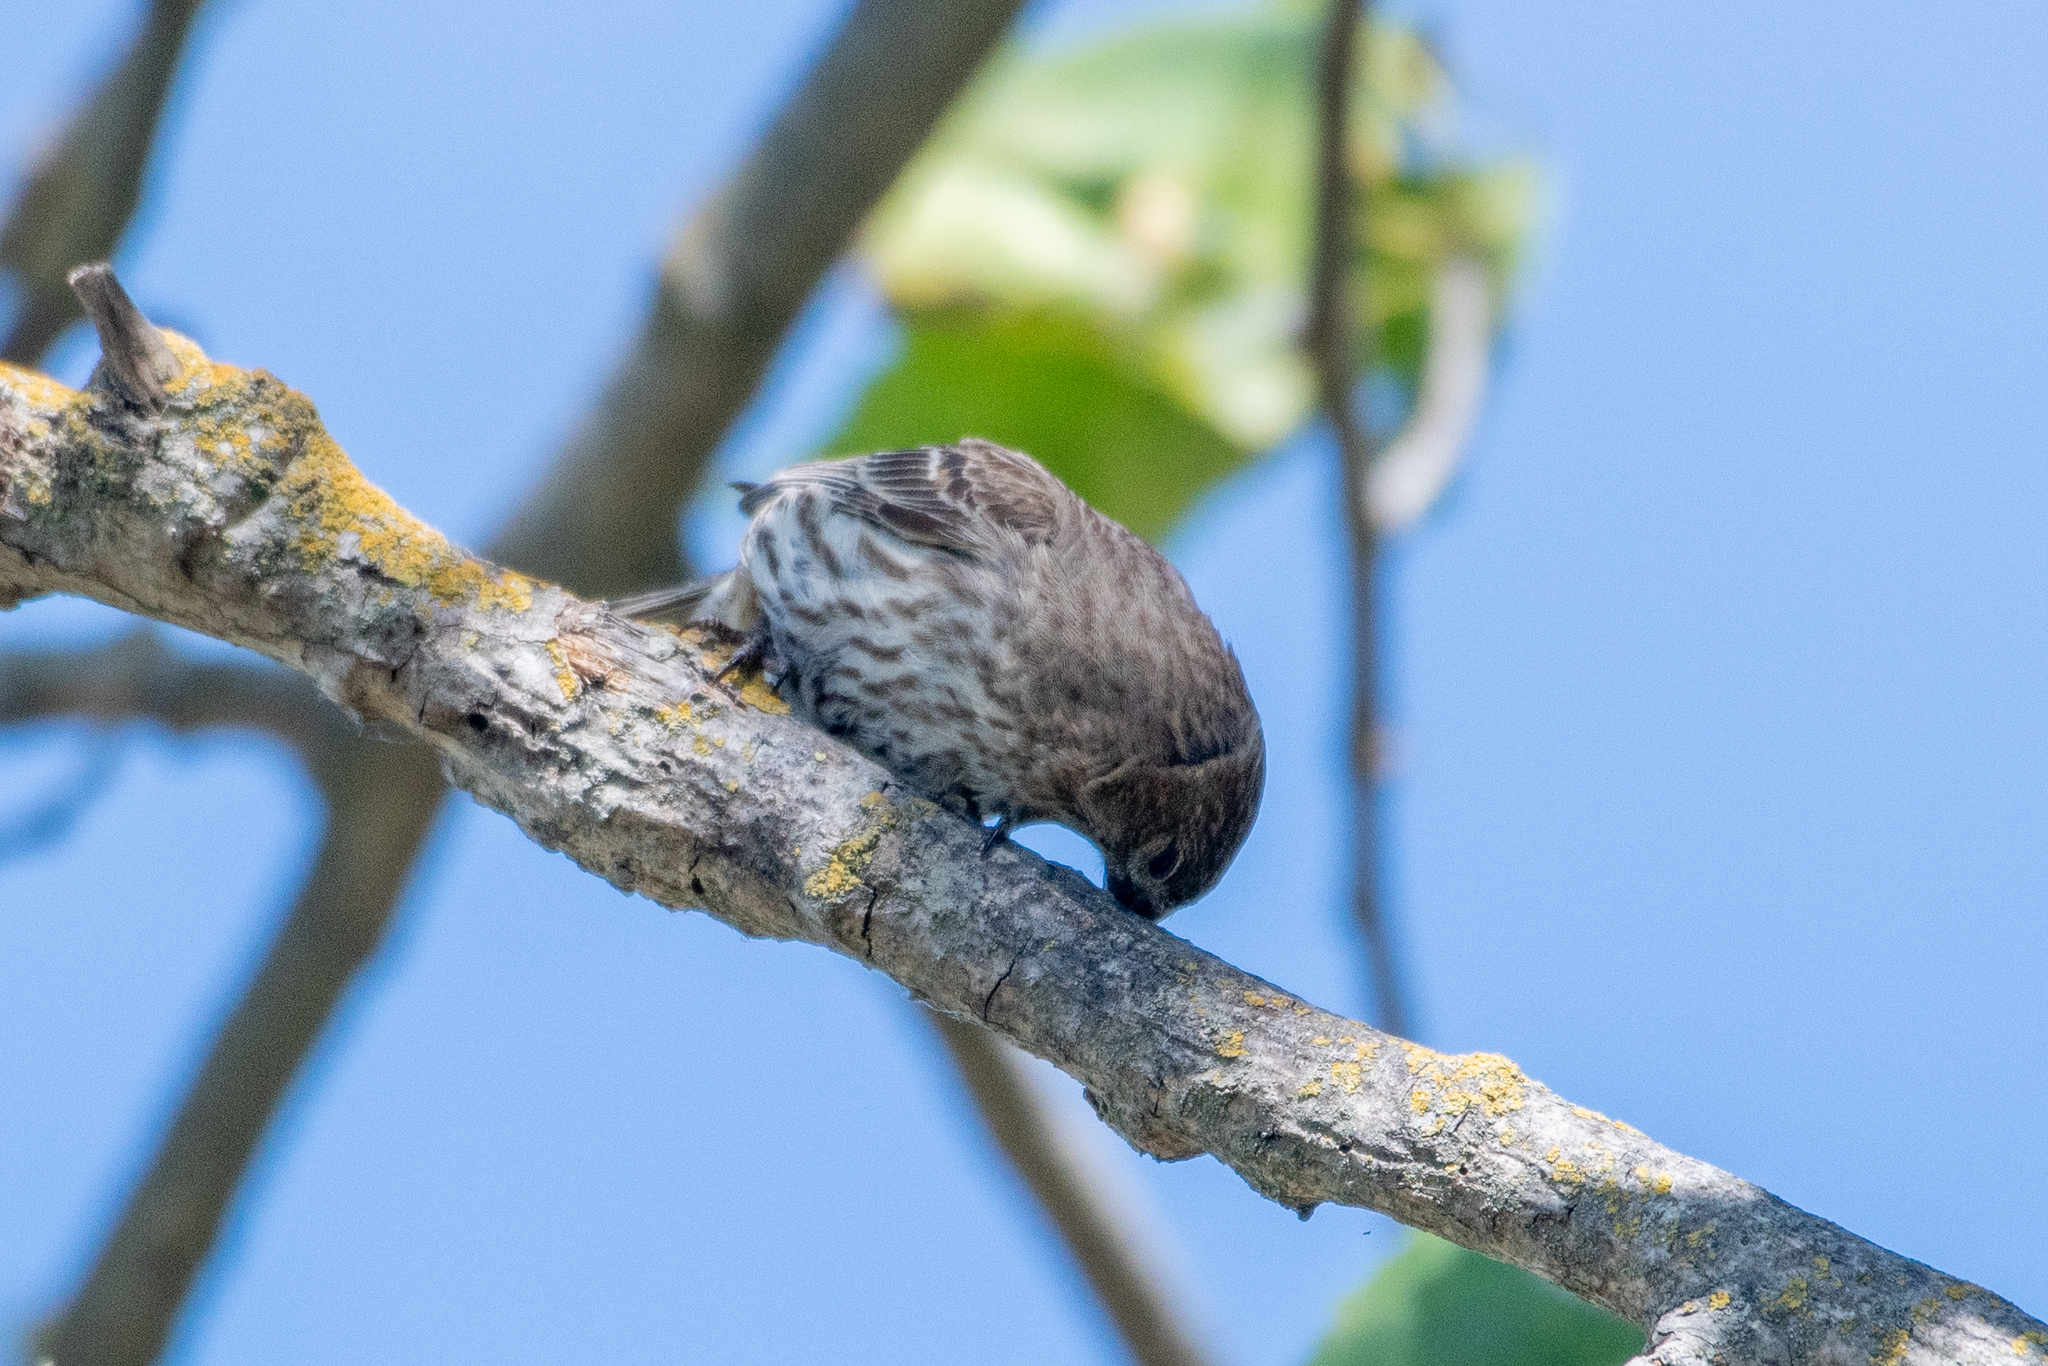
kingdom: Animalia
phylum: Chordata
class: Aves
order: Passeriformes
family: Fringillidae
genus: Haemorhous
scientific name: Haemorhous mexicanus
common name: House finch
